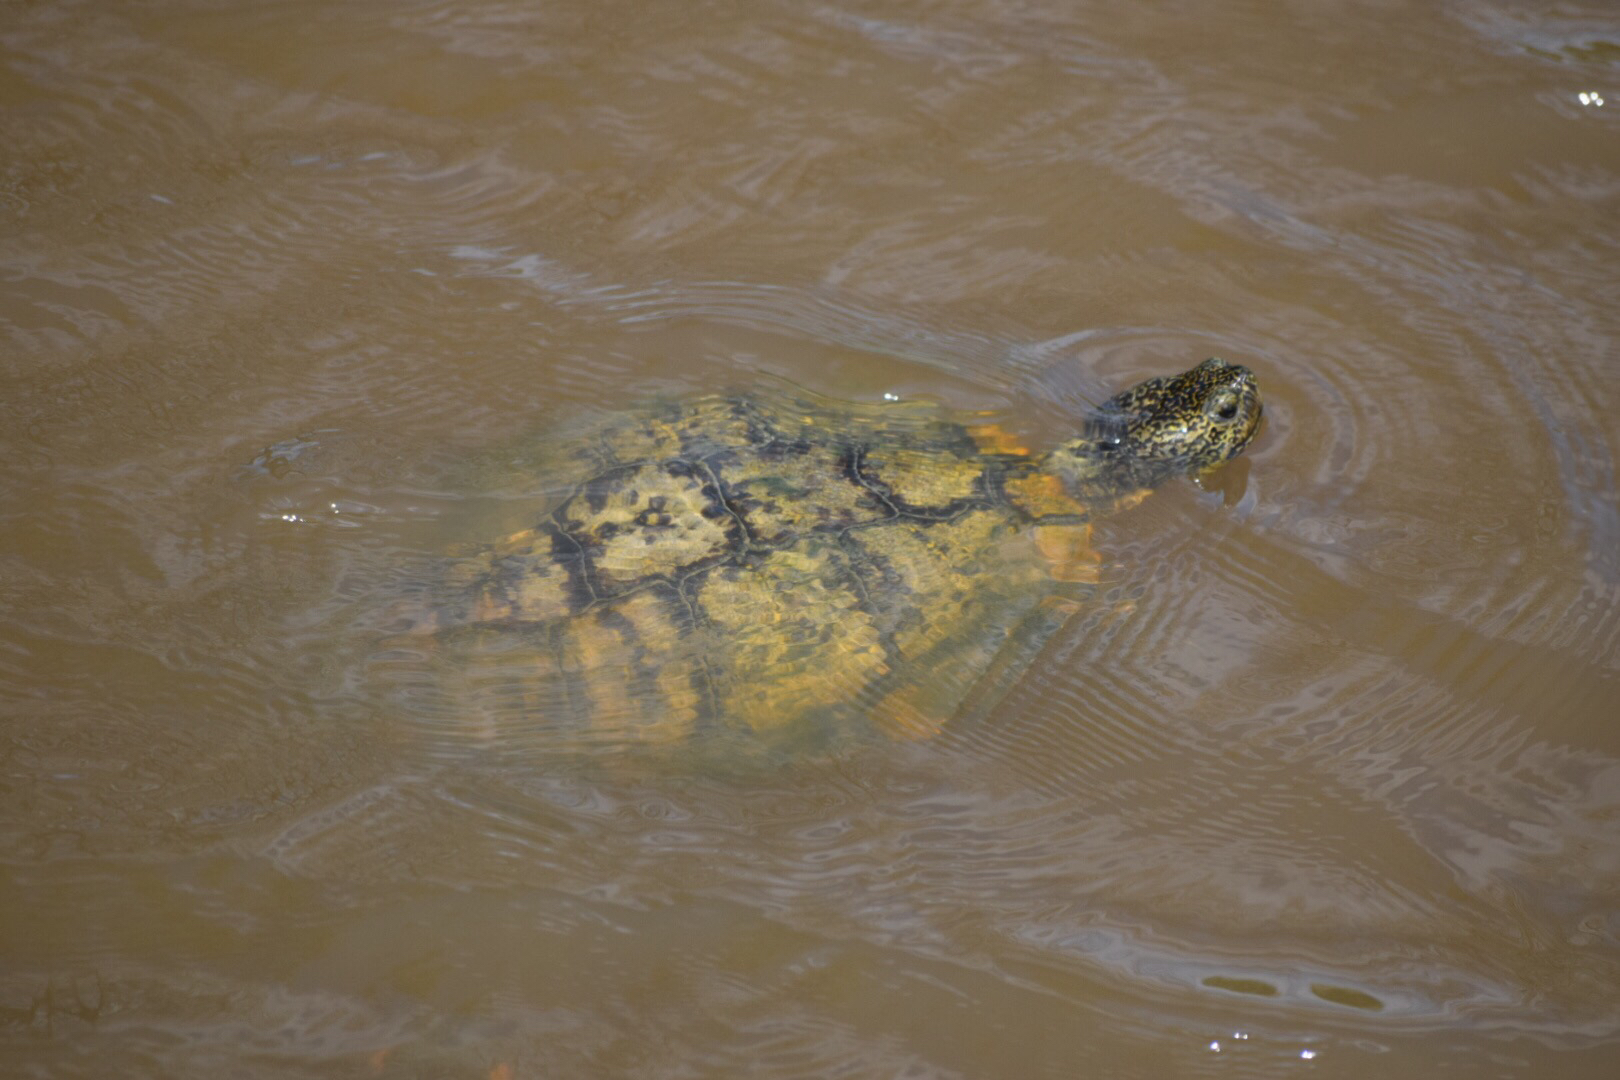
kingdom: Animalia
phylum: Chordata
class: Testudines
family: Emydidae
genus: Trachemys
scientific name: Trachemys scripta
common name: Slider
